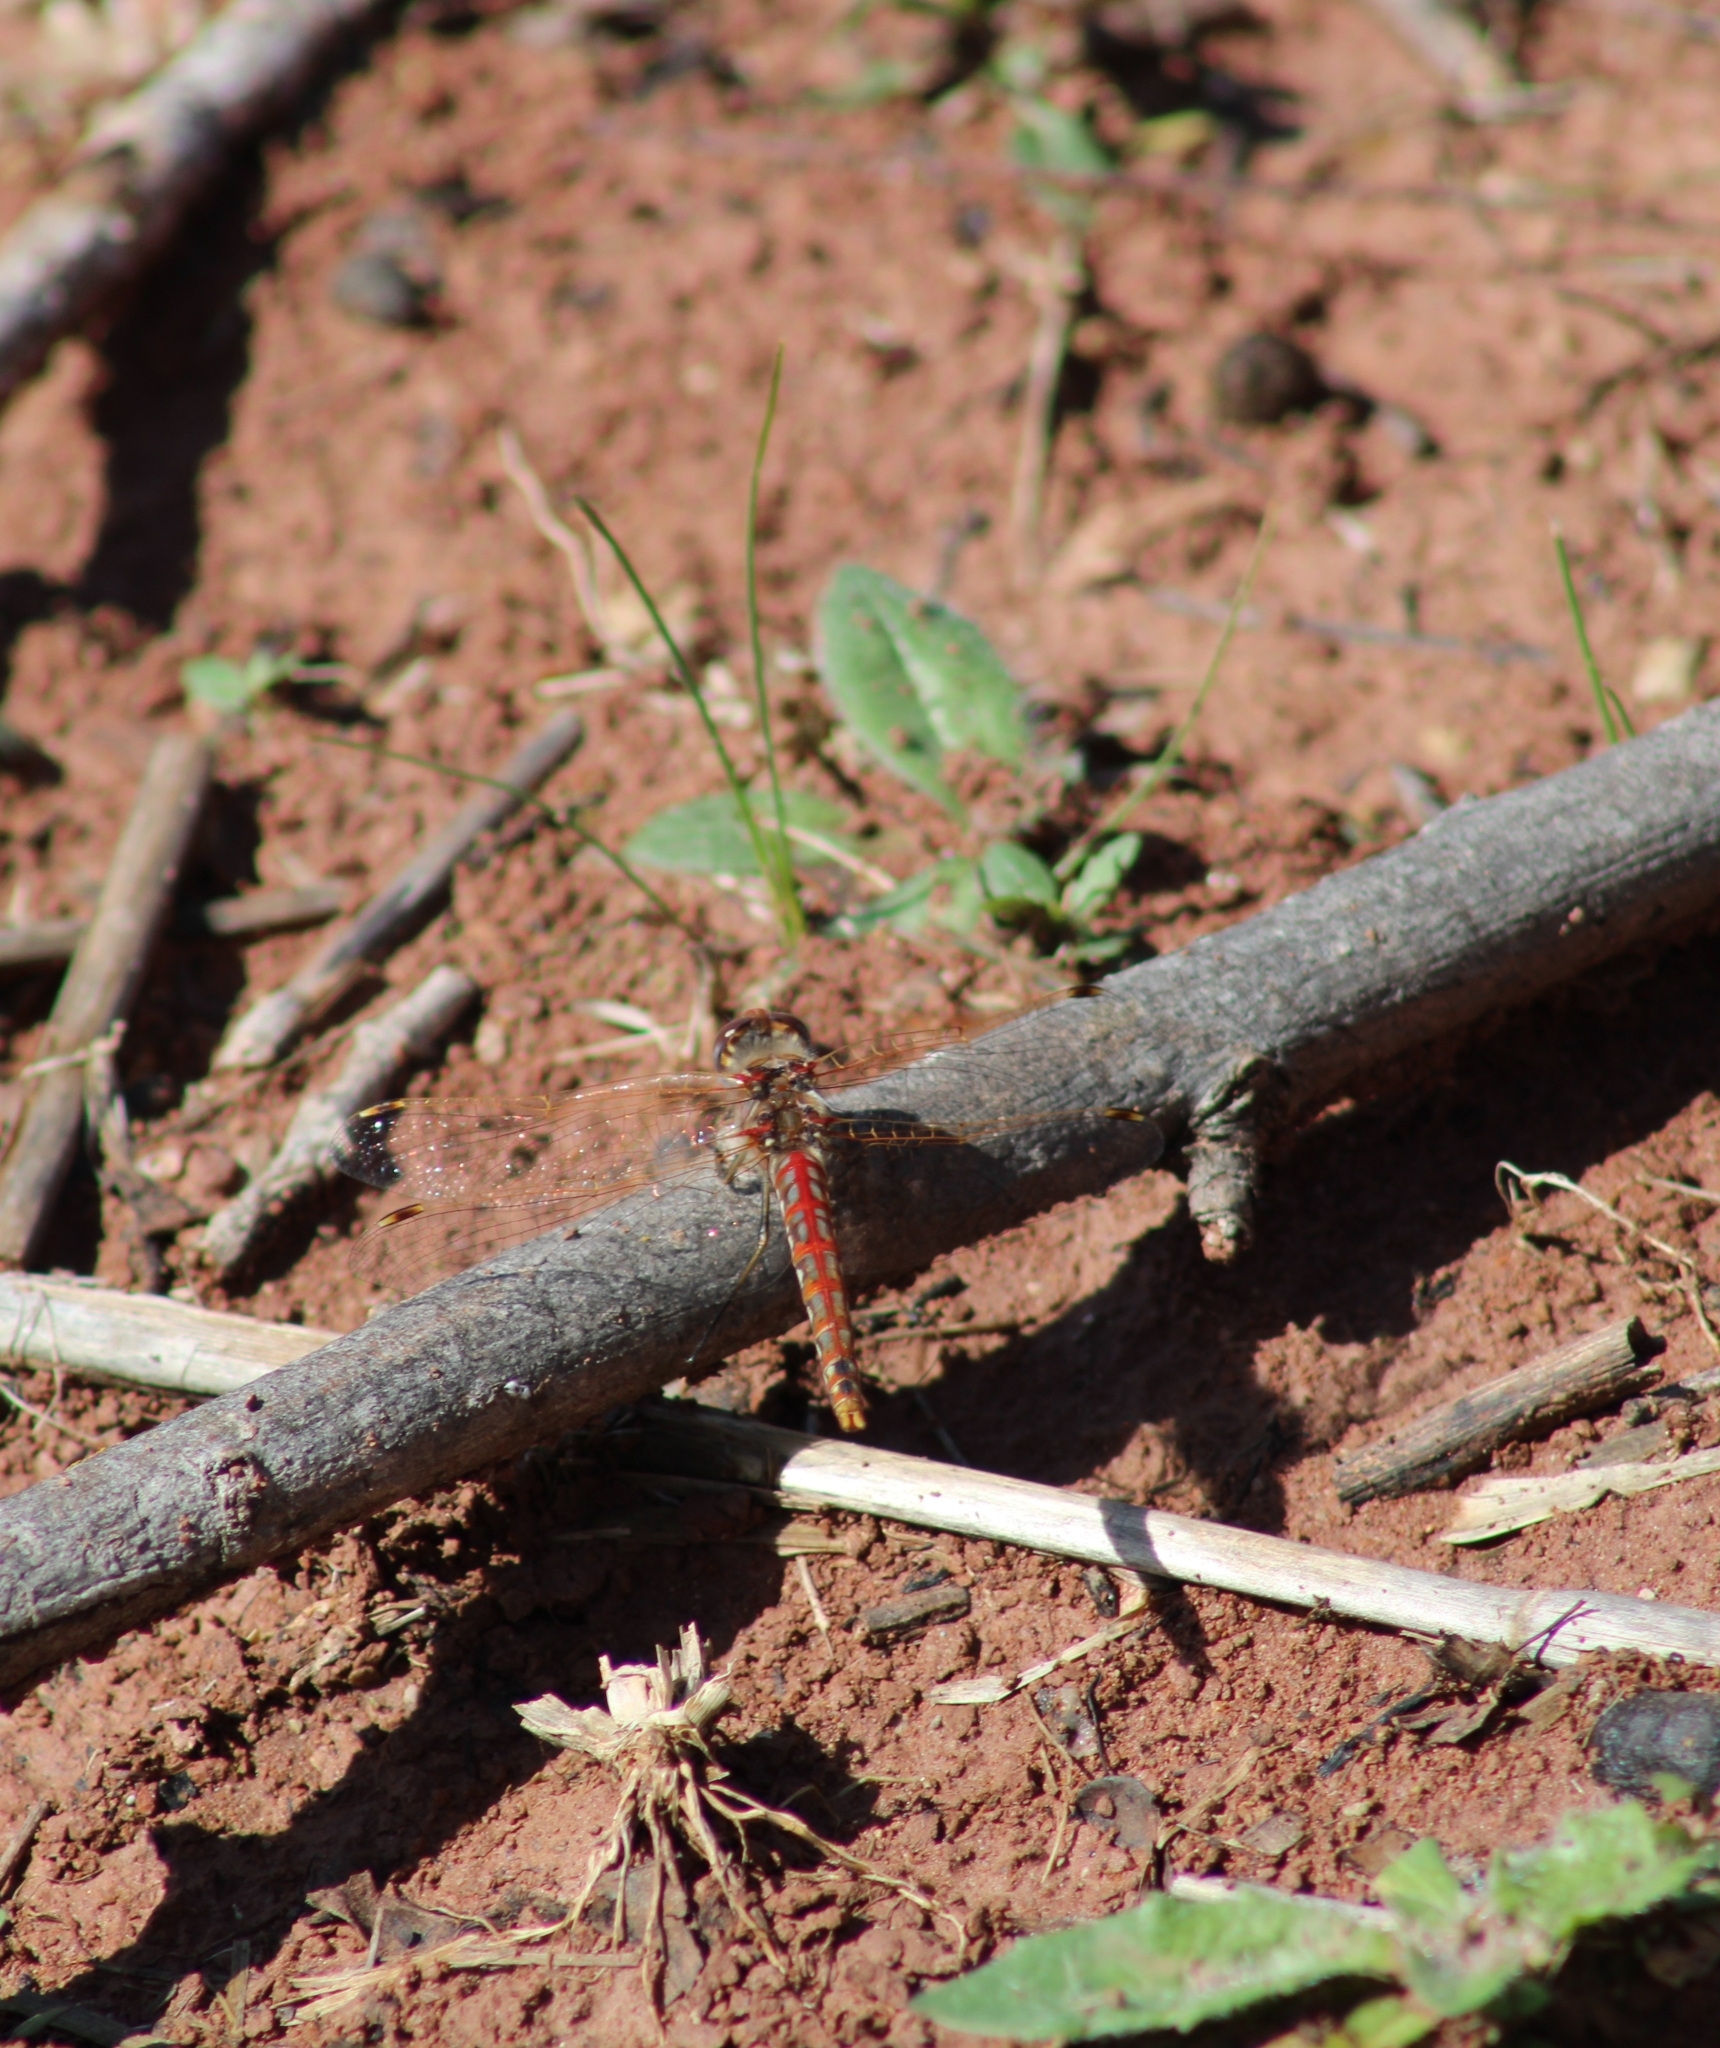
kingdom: Animalia
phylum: Arthropoda
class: Insecta
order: Odonata
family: Libellulidae
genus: Sympetrum
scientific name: Sympetrum corruptum
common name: Variegated meadowhawk
